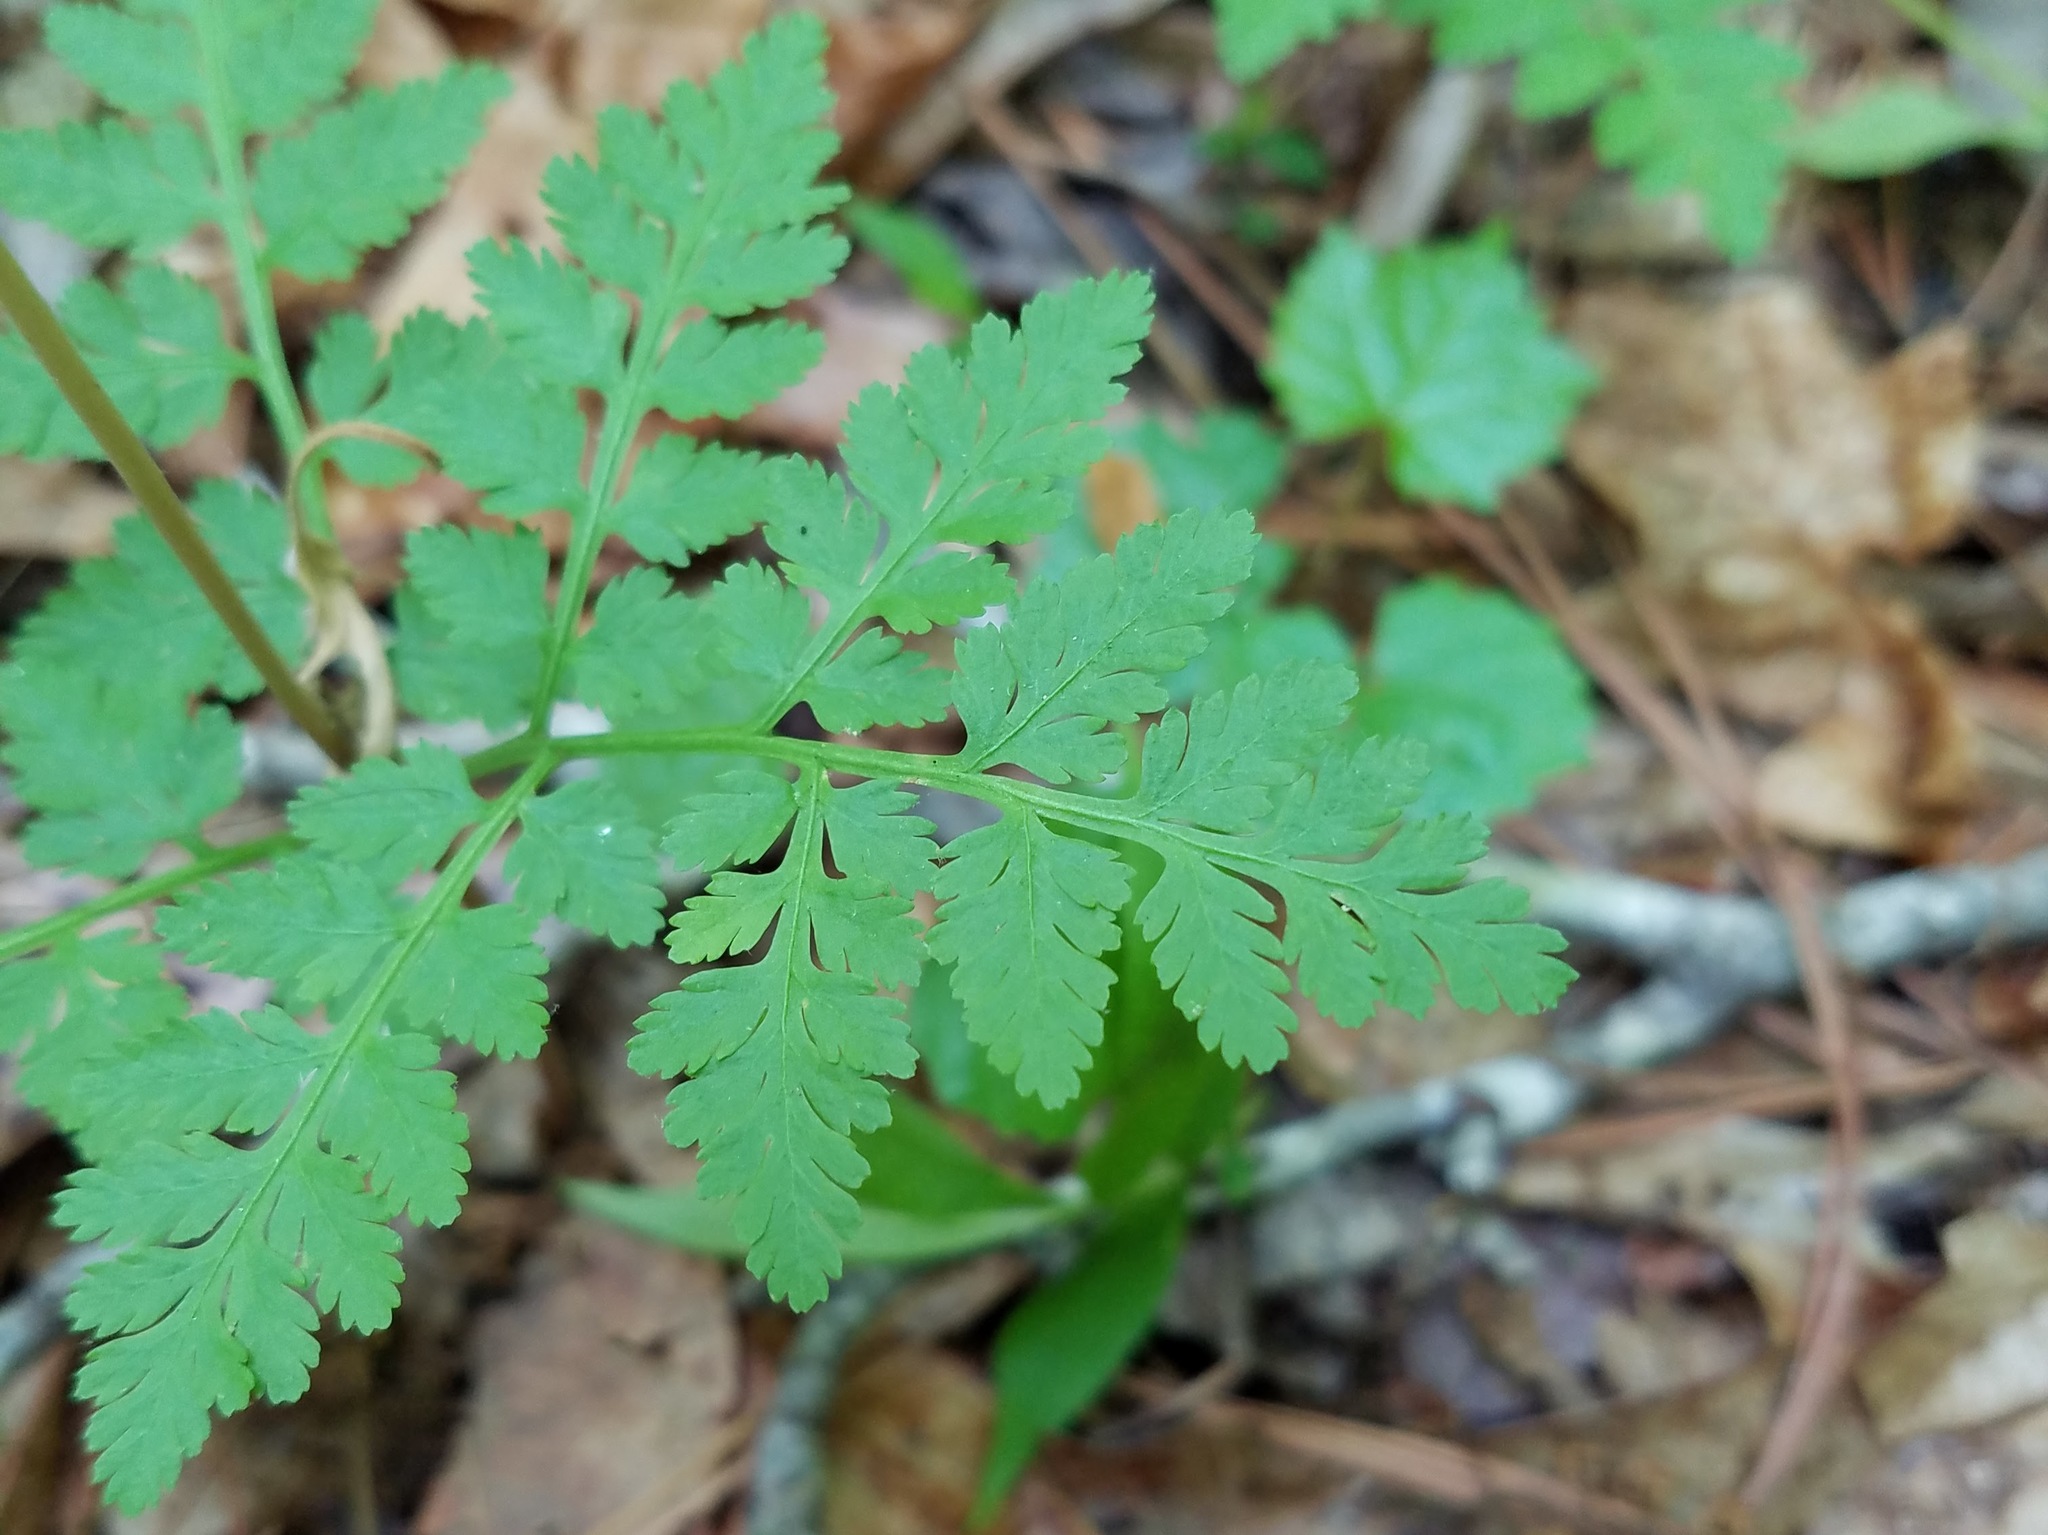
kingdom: Plantae
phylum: Tracheophyta
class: Polypodiopsida
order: Ophioglossales
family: Ophioglossaceae
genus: Botrypus
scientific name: Botrypus virginianus
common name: Common grapefern
